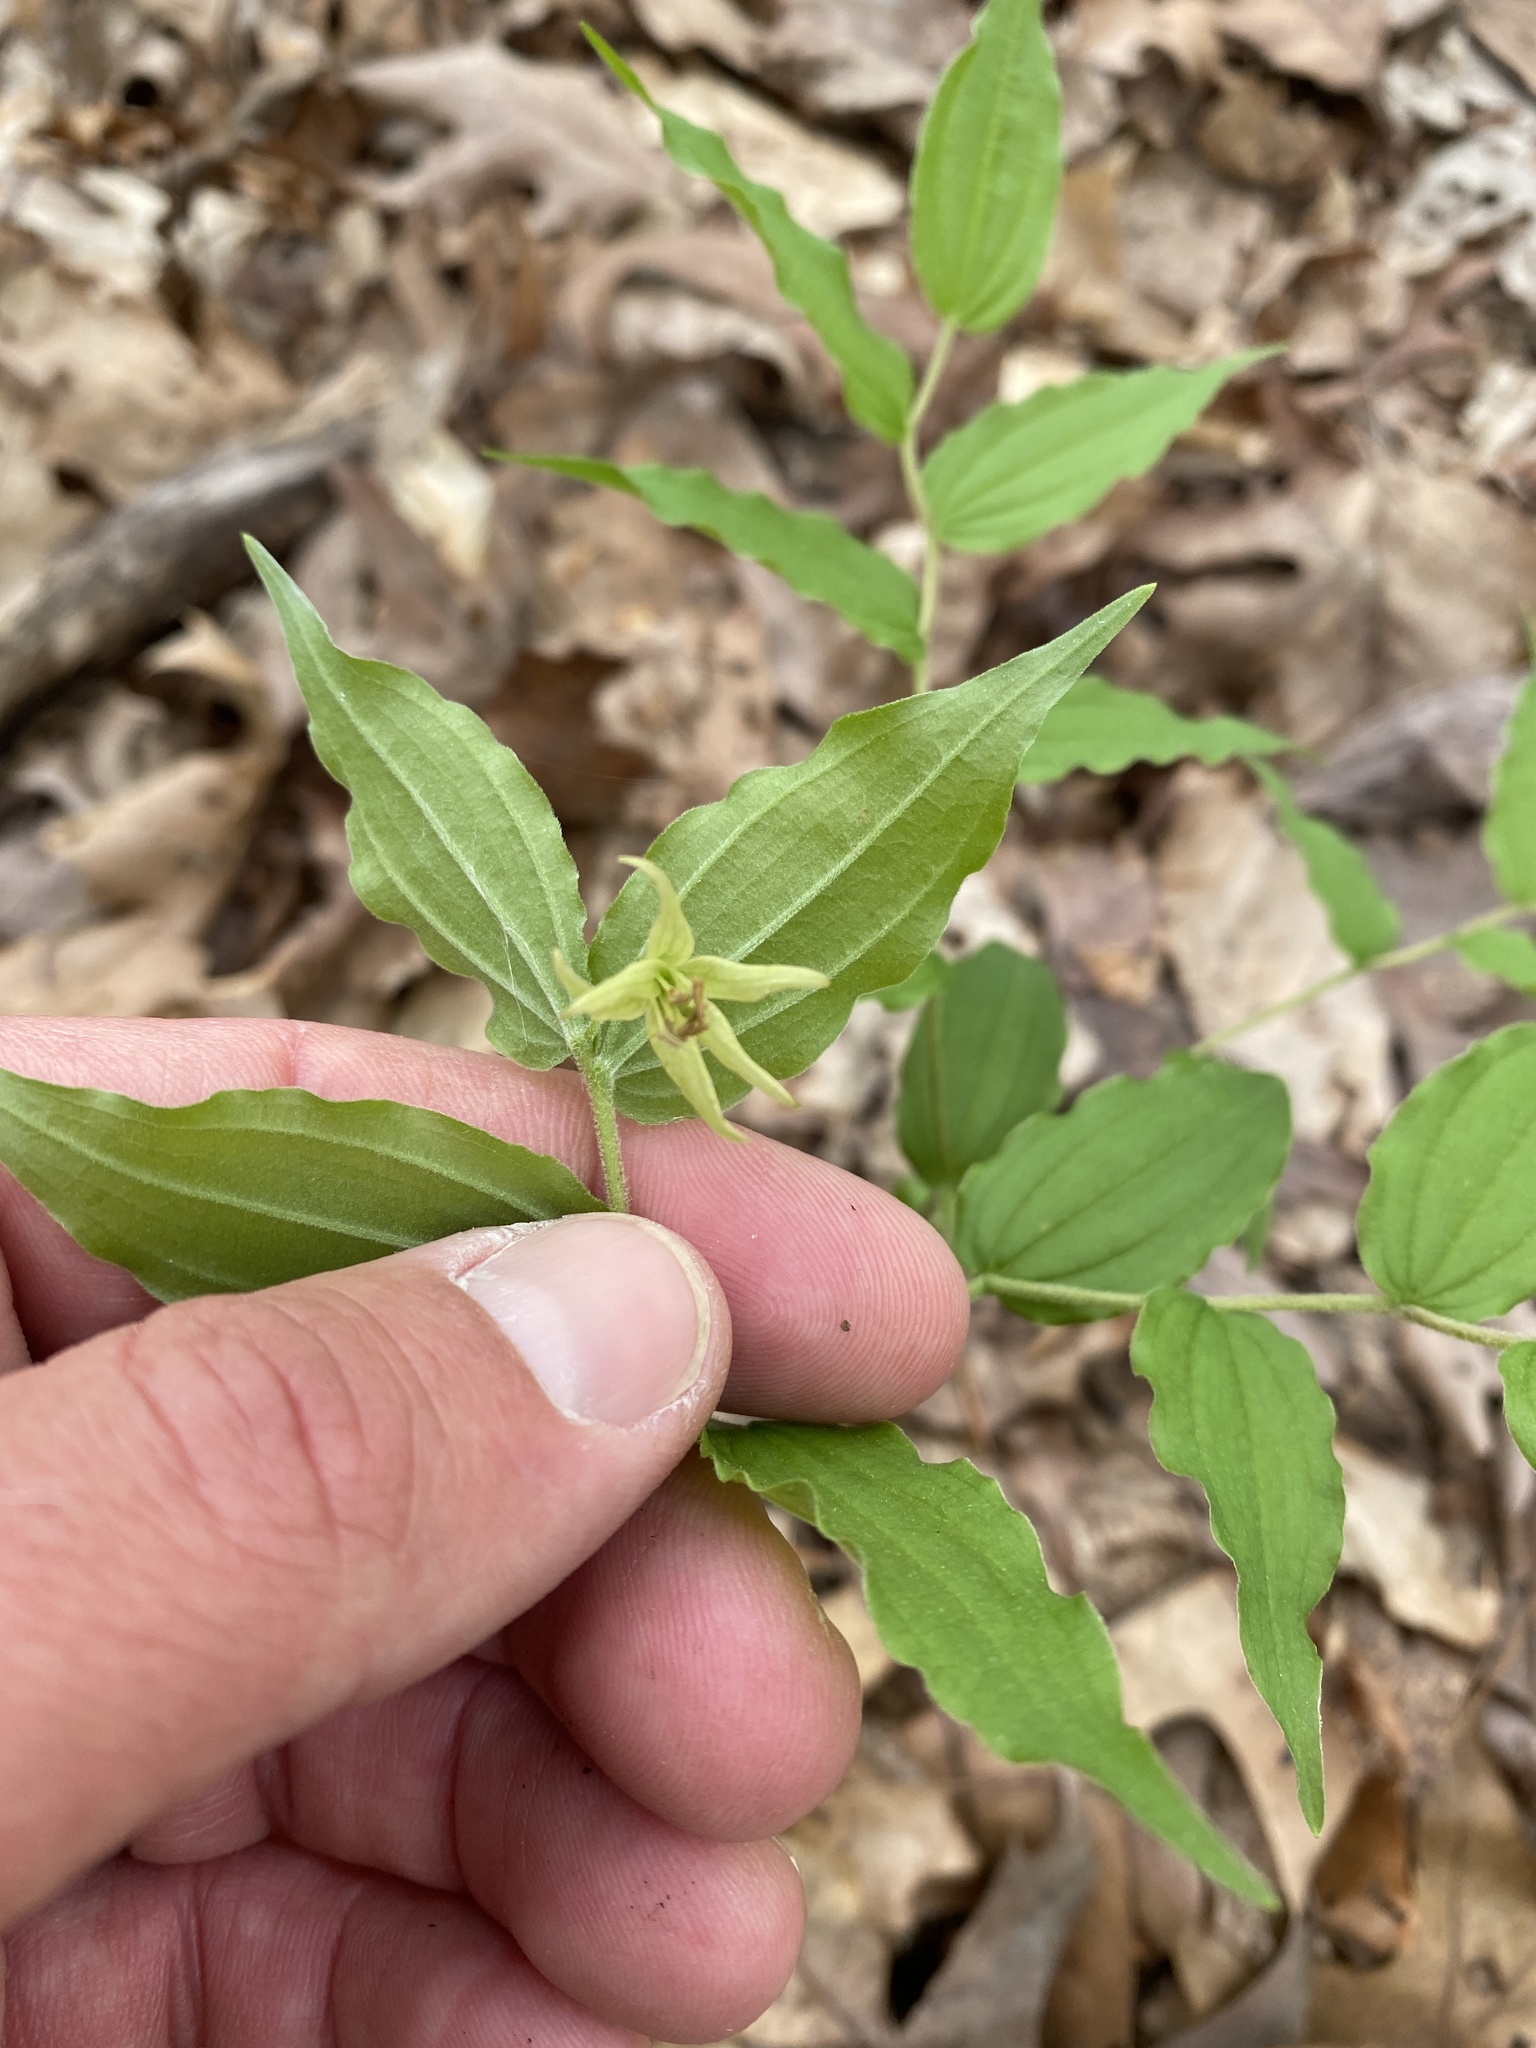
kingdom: Plantae
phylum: Tracheophyta
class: Liliopsida
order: Liliales
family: Liliaceae
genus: Prosartes
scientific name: Prosartes lanuginosa
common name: Hairy mandarin
